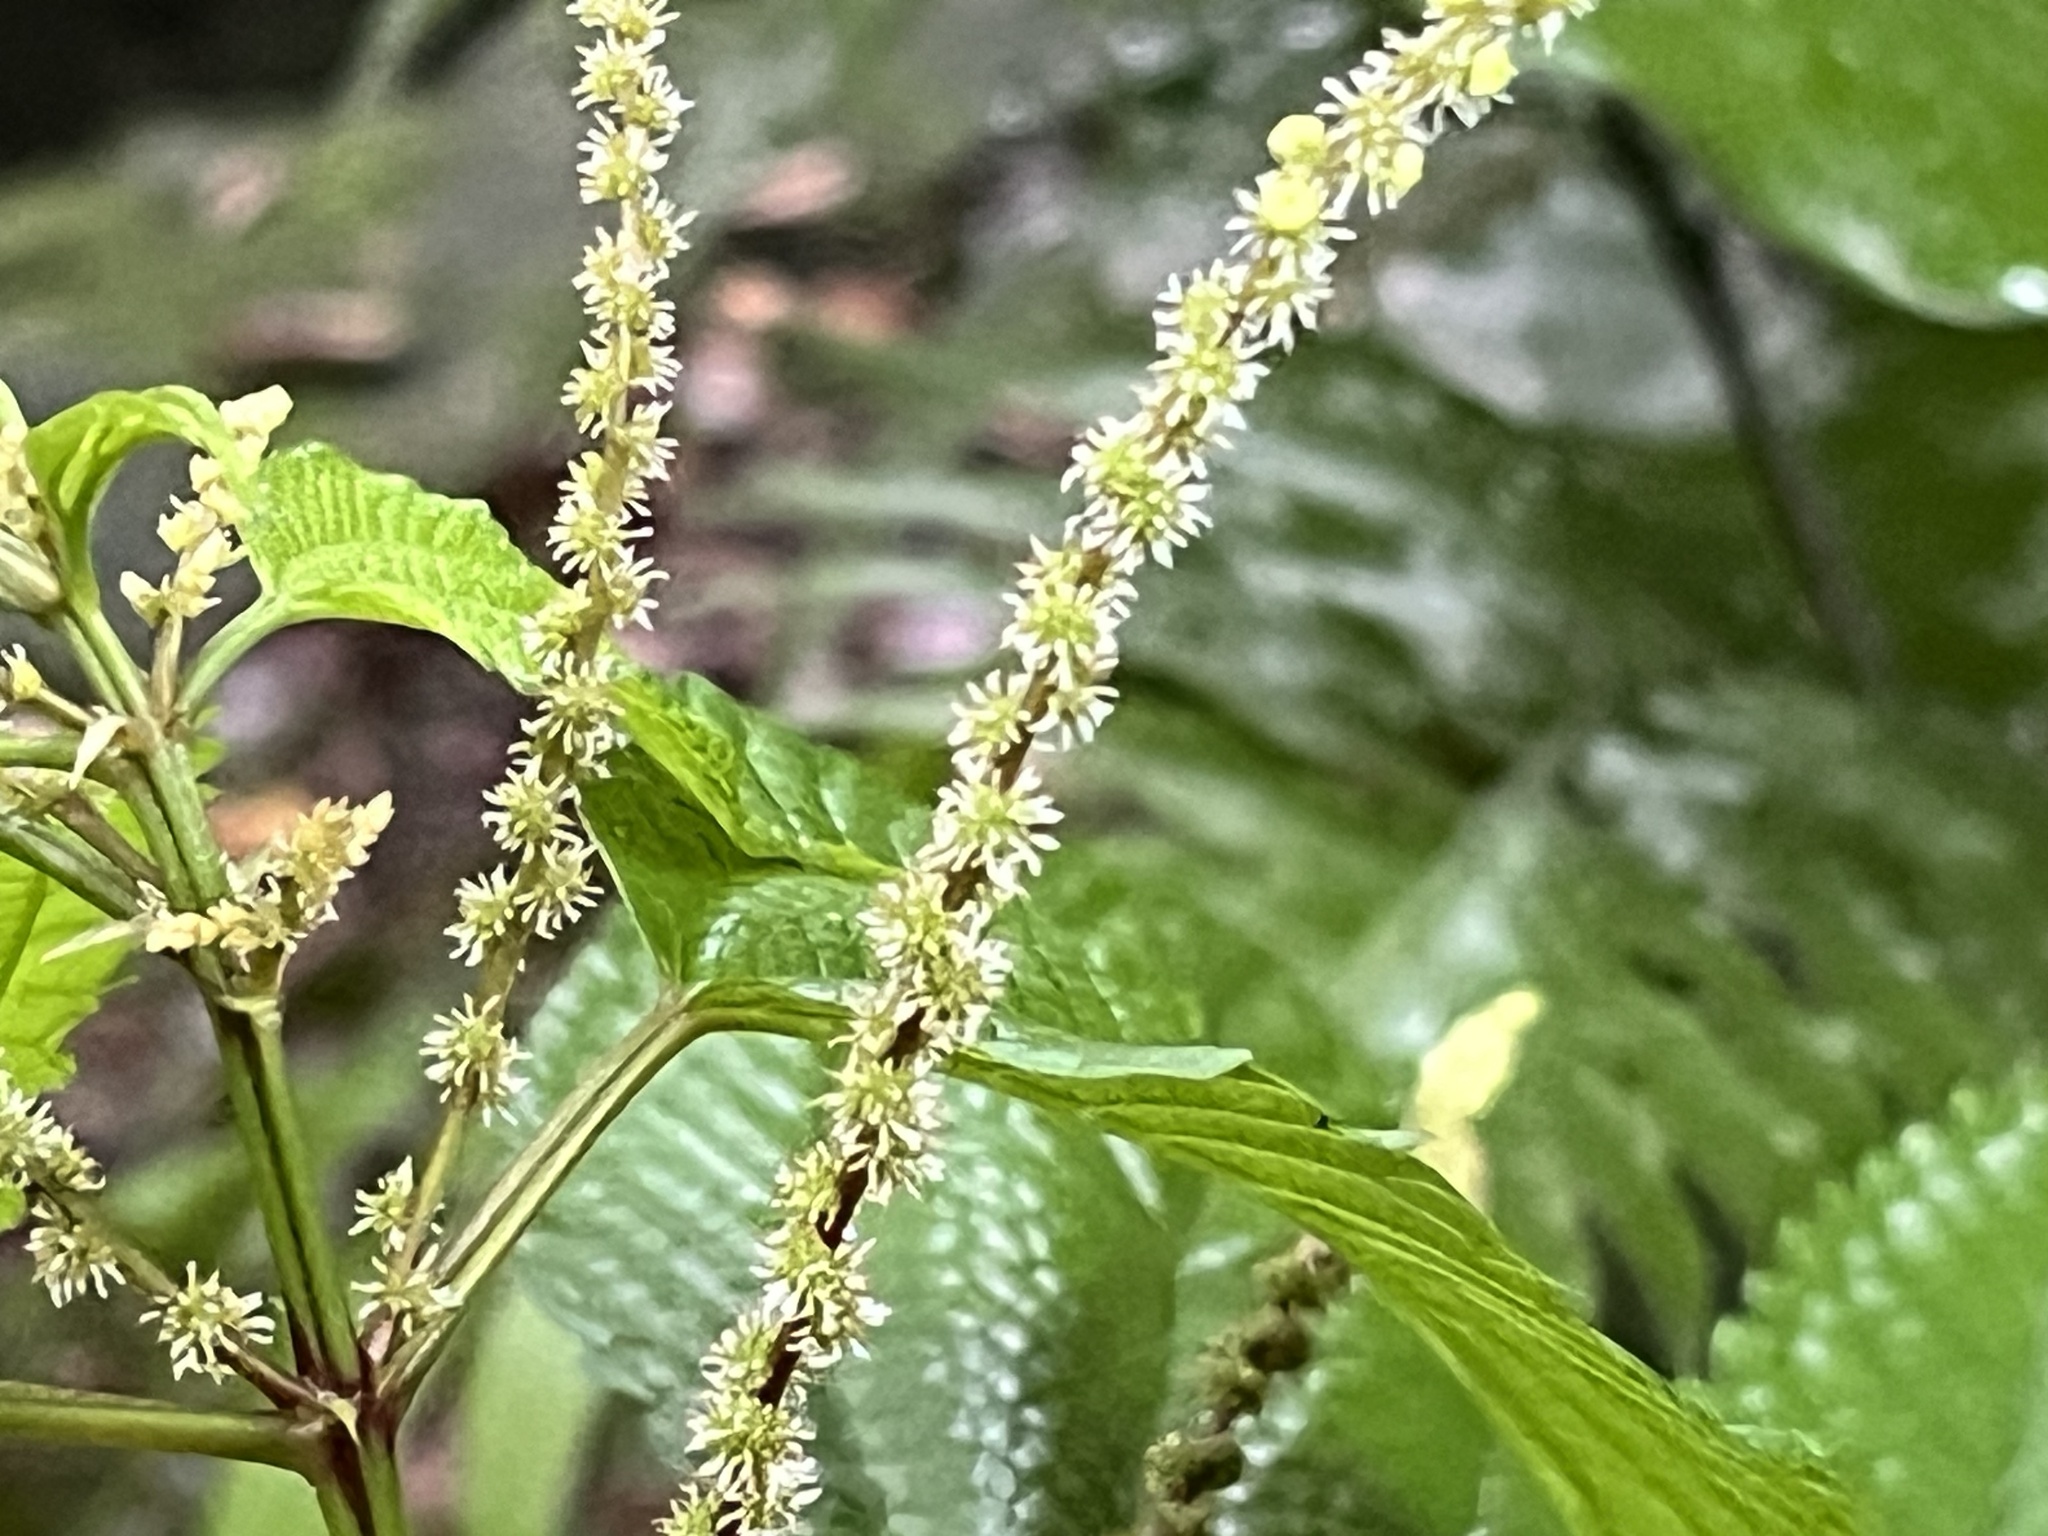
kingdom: Plantae
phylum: Tracheophyta
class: Magnoliopsida
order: Rosales
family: Urticaceae
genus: Boehmeria
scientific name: Boehmeria sieboldiana
